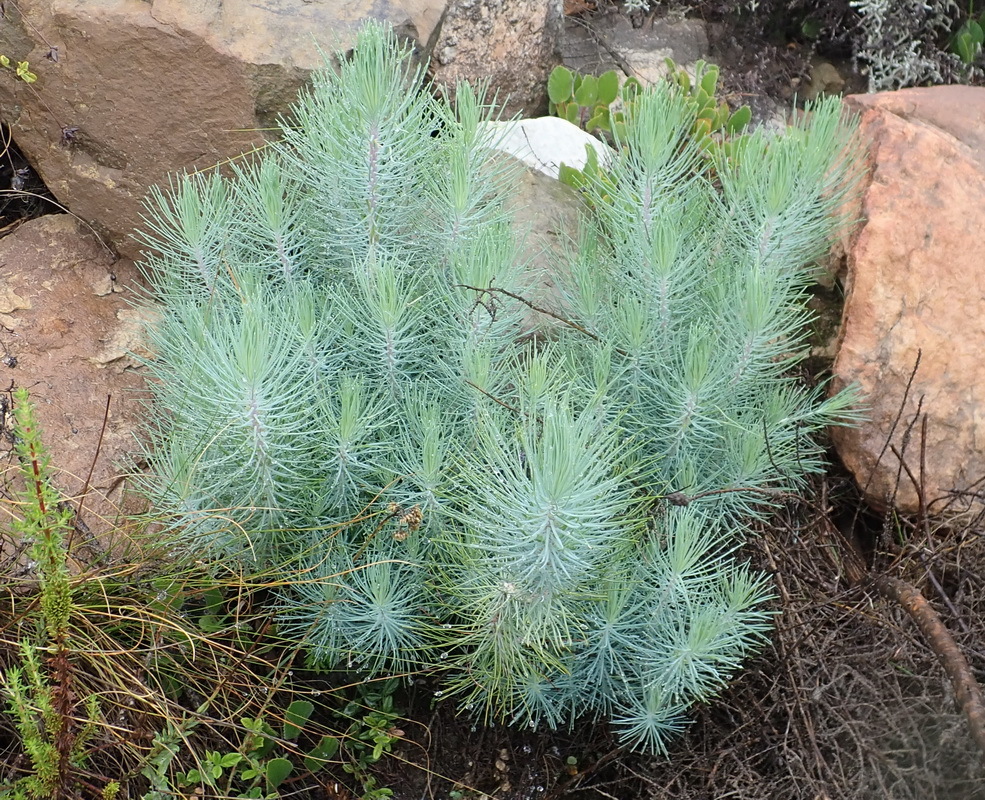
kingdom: Plantae
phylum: Tracheophyta
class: Pinopsida
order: Pinales
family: Pinaceae
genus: Pinus
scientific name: Pinus canariensis
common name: Canary islands pine
